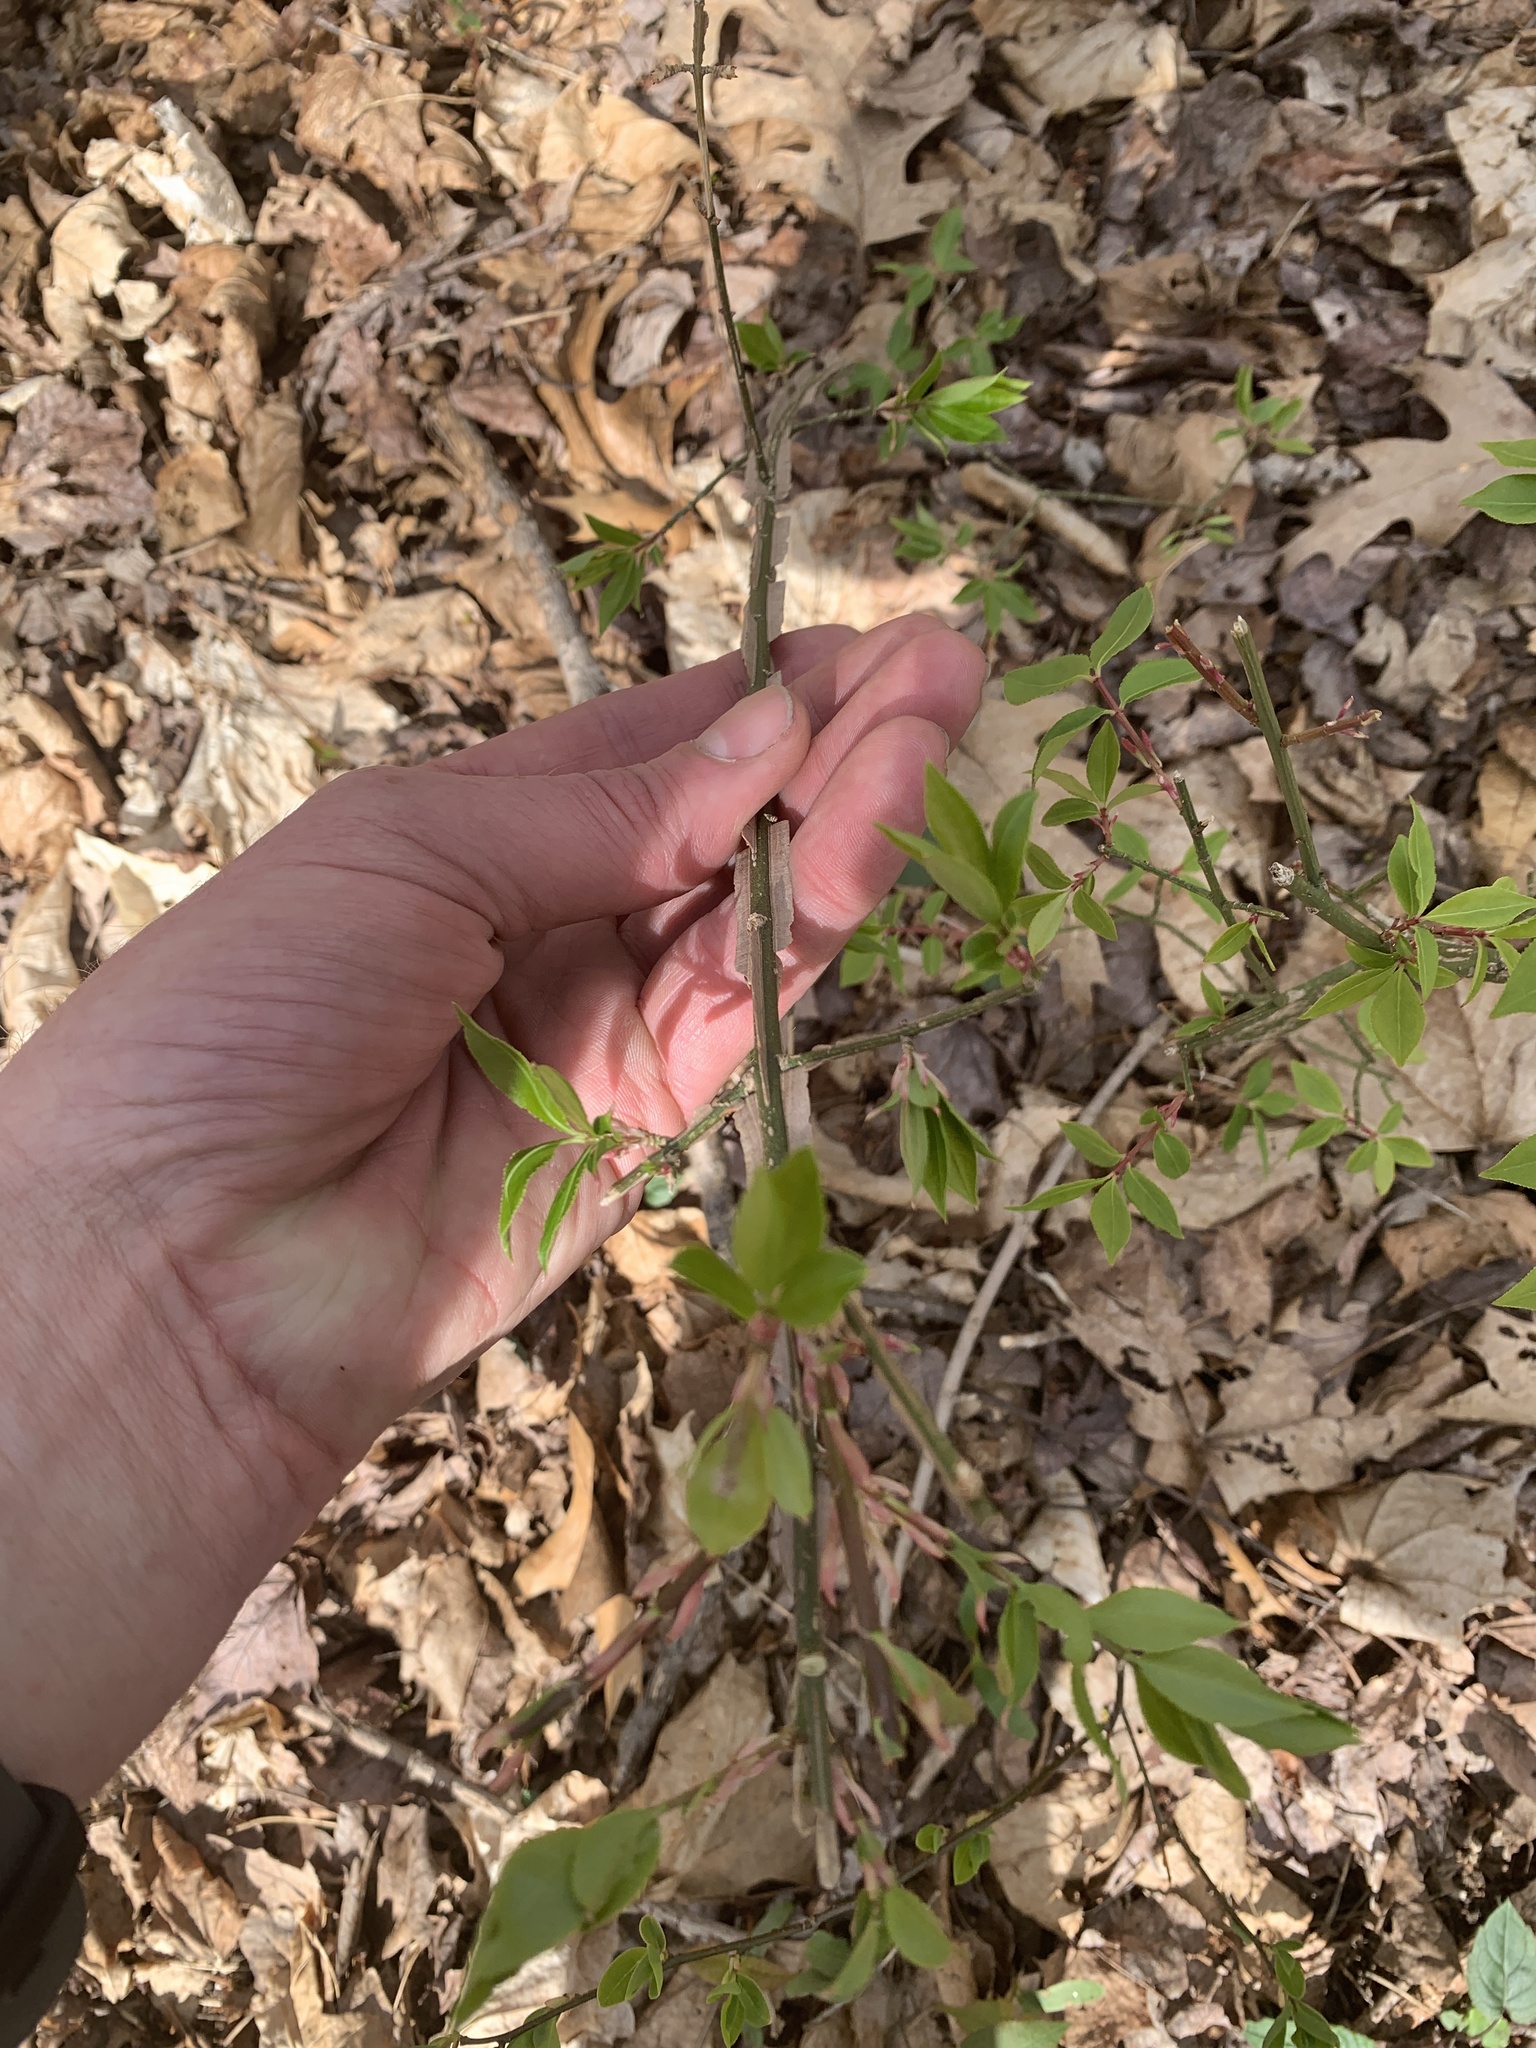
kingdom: Plantae
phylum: Tracheophyta
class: Magnoliopsida
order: Celastrales
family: Celastraceae
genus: Euonymus
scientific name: Euonymus alatus
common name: Winged euonymus
